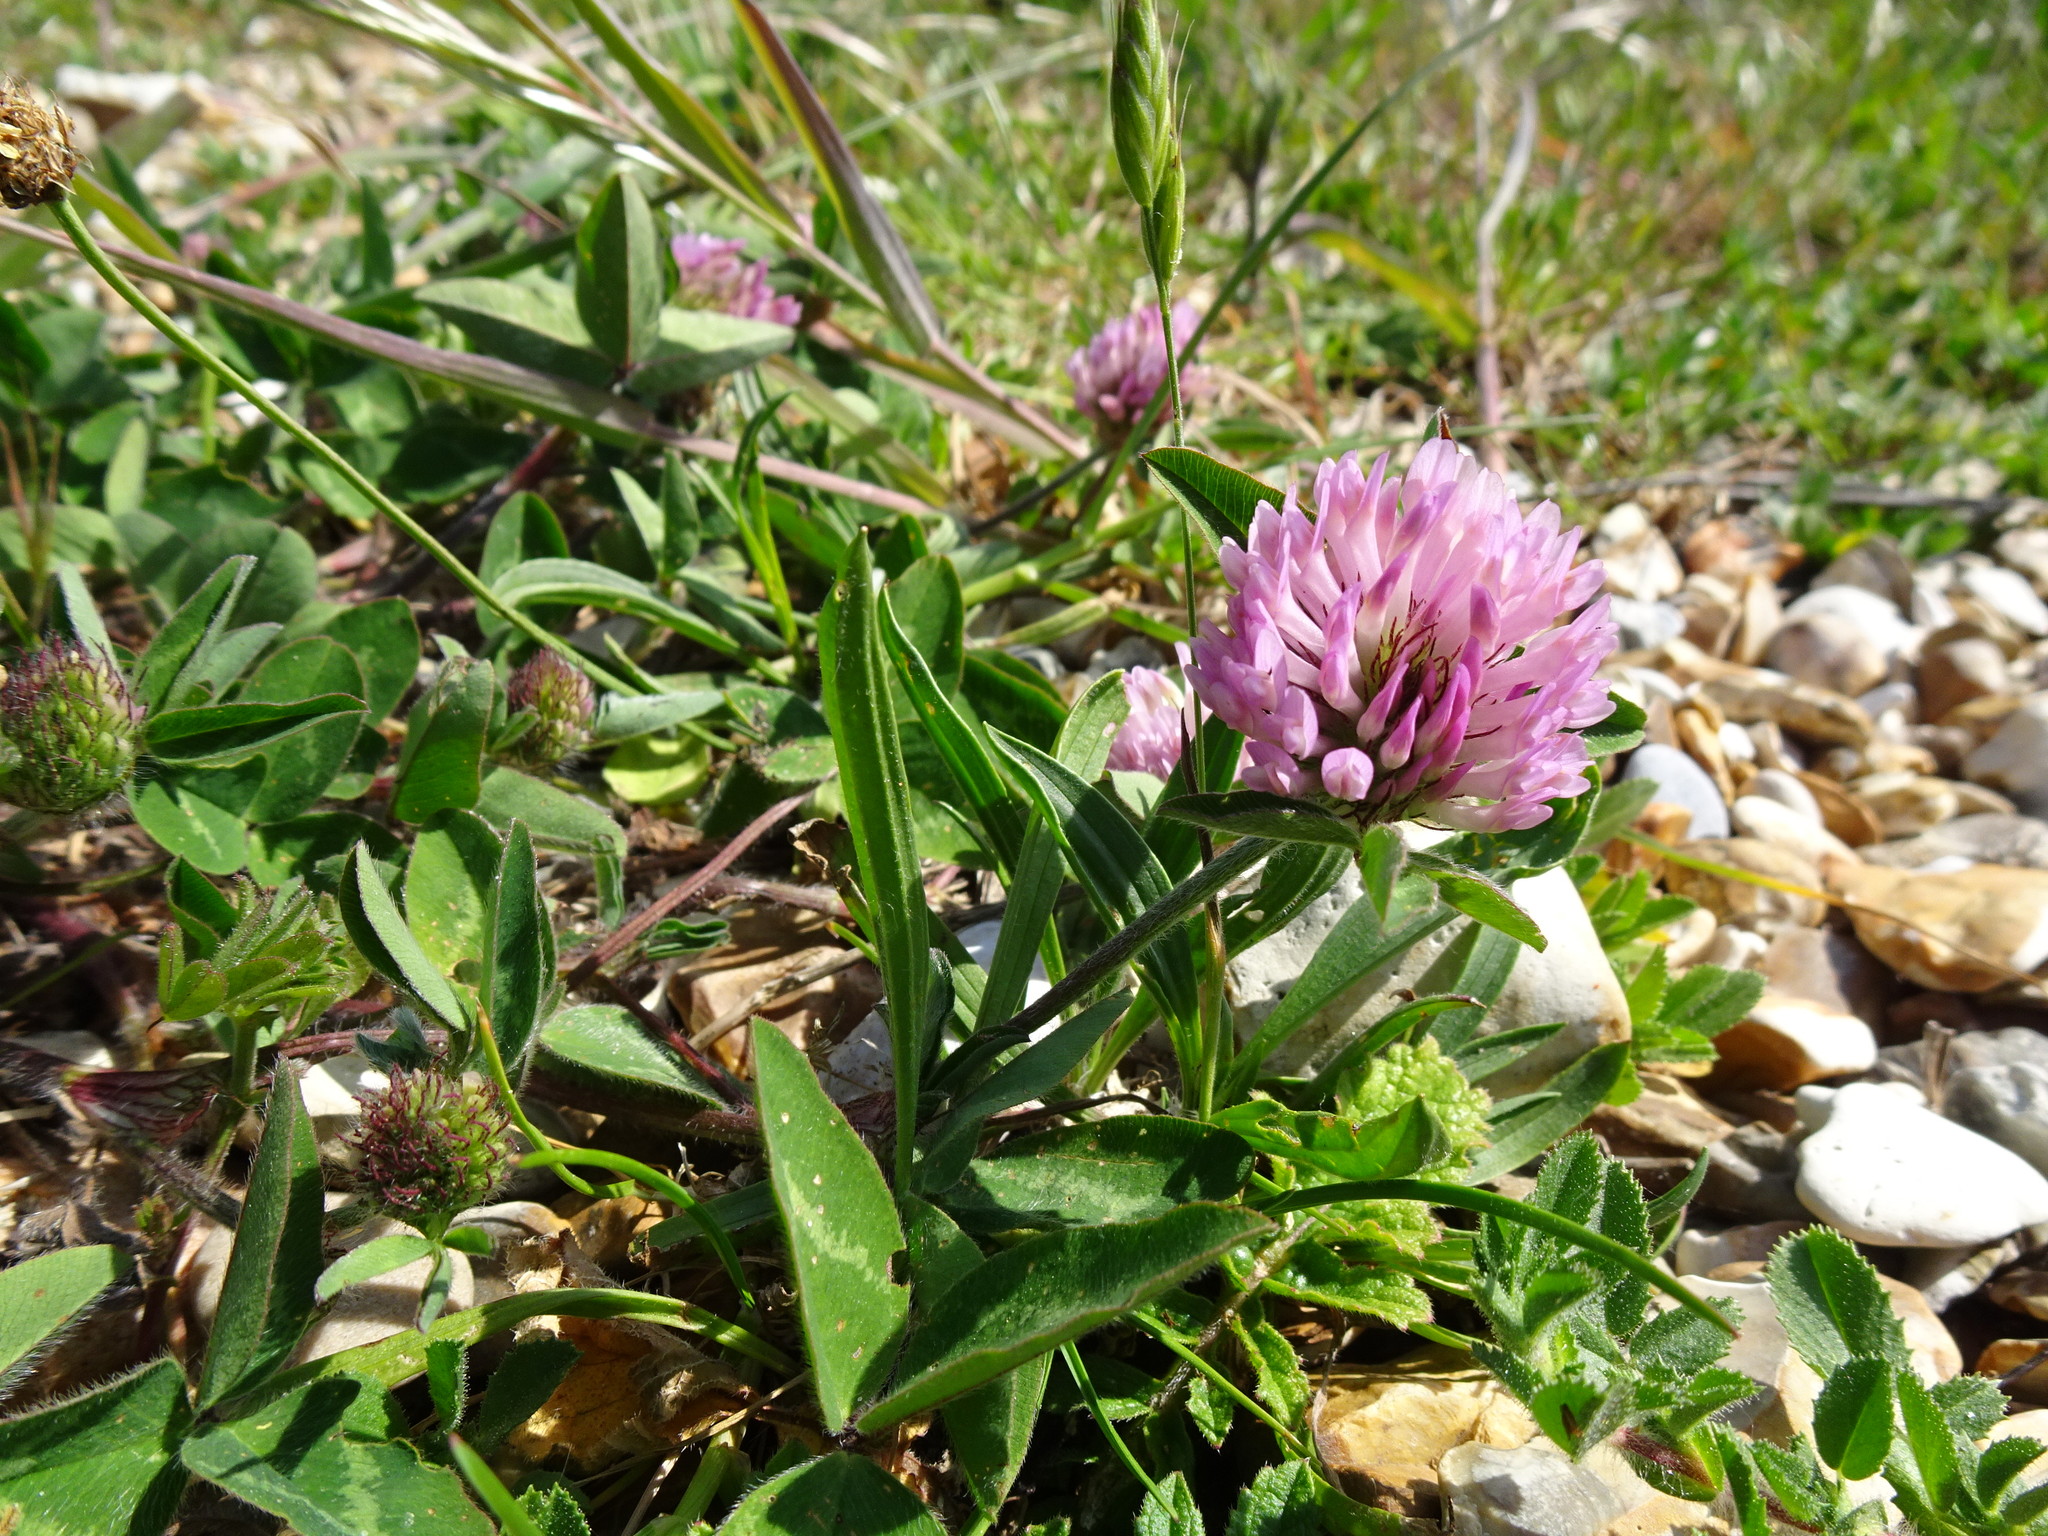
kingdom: Plantae
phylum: Tracheophyta
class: Magnoliopsida
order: Fabales
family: Fabaceae
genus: Trifolium
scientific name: Trifolium pratense
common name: Red clover
